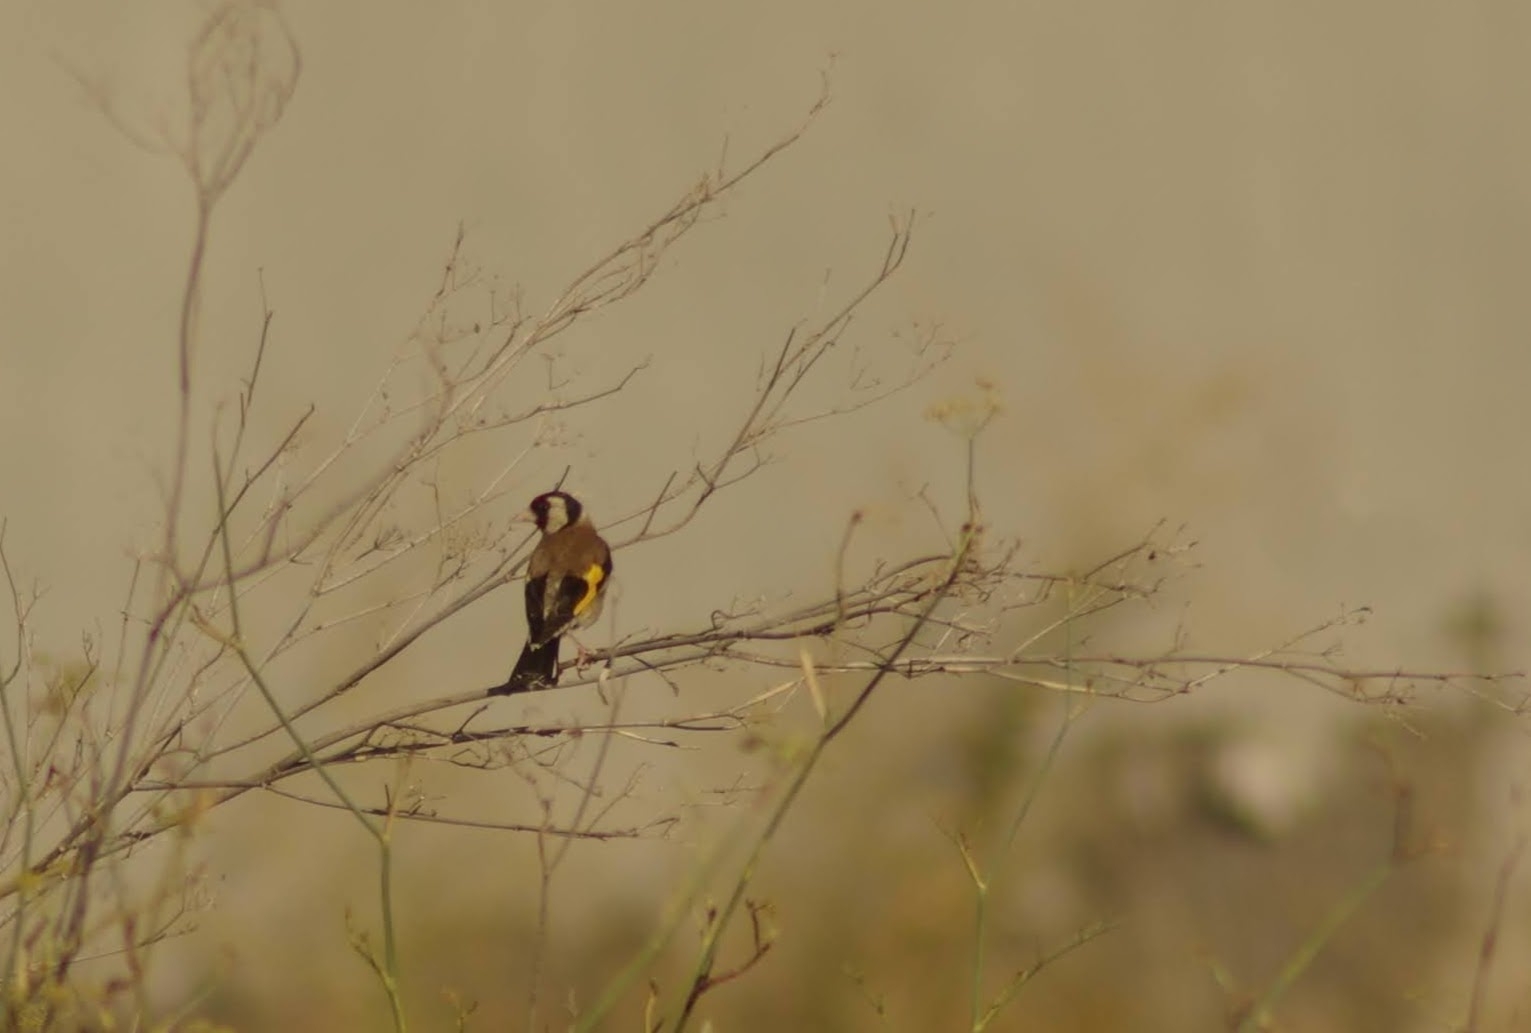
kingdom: Animalia
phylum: Chordata
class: Aves
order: Passeriformes
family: Fringillidae
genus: Carduelis
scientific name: Carduelis carduelis
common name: European goldfinch
